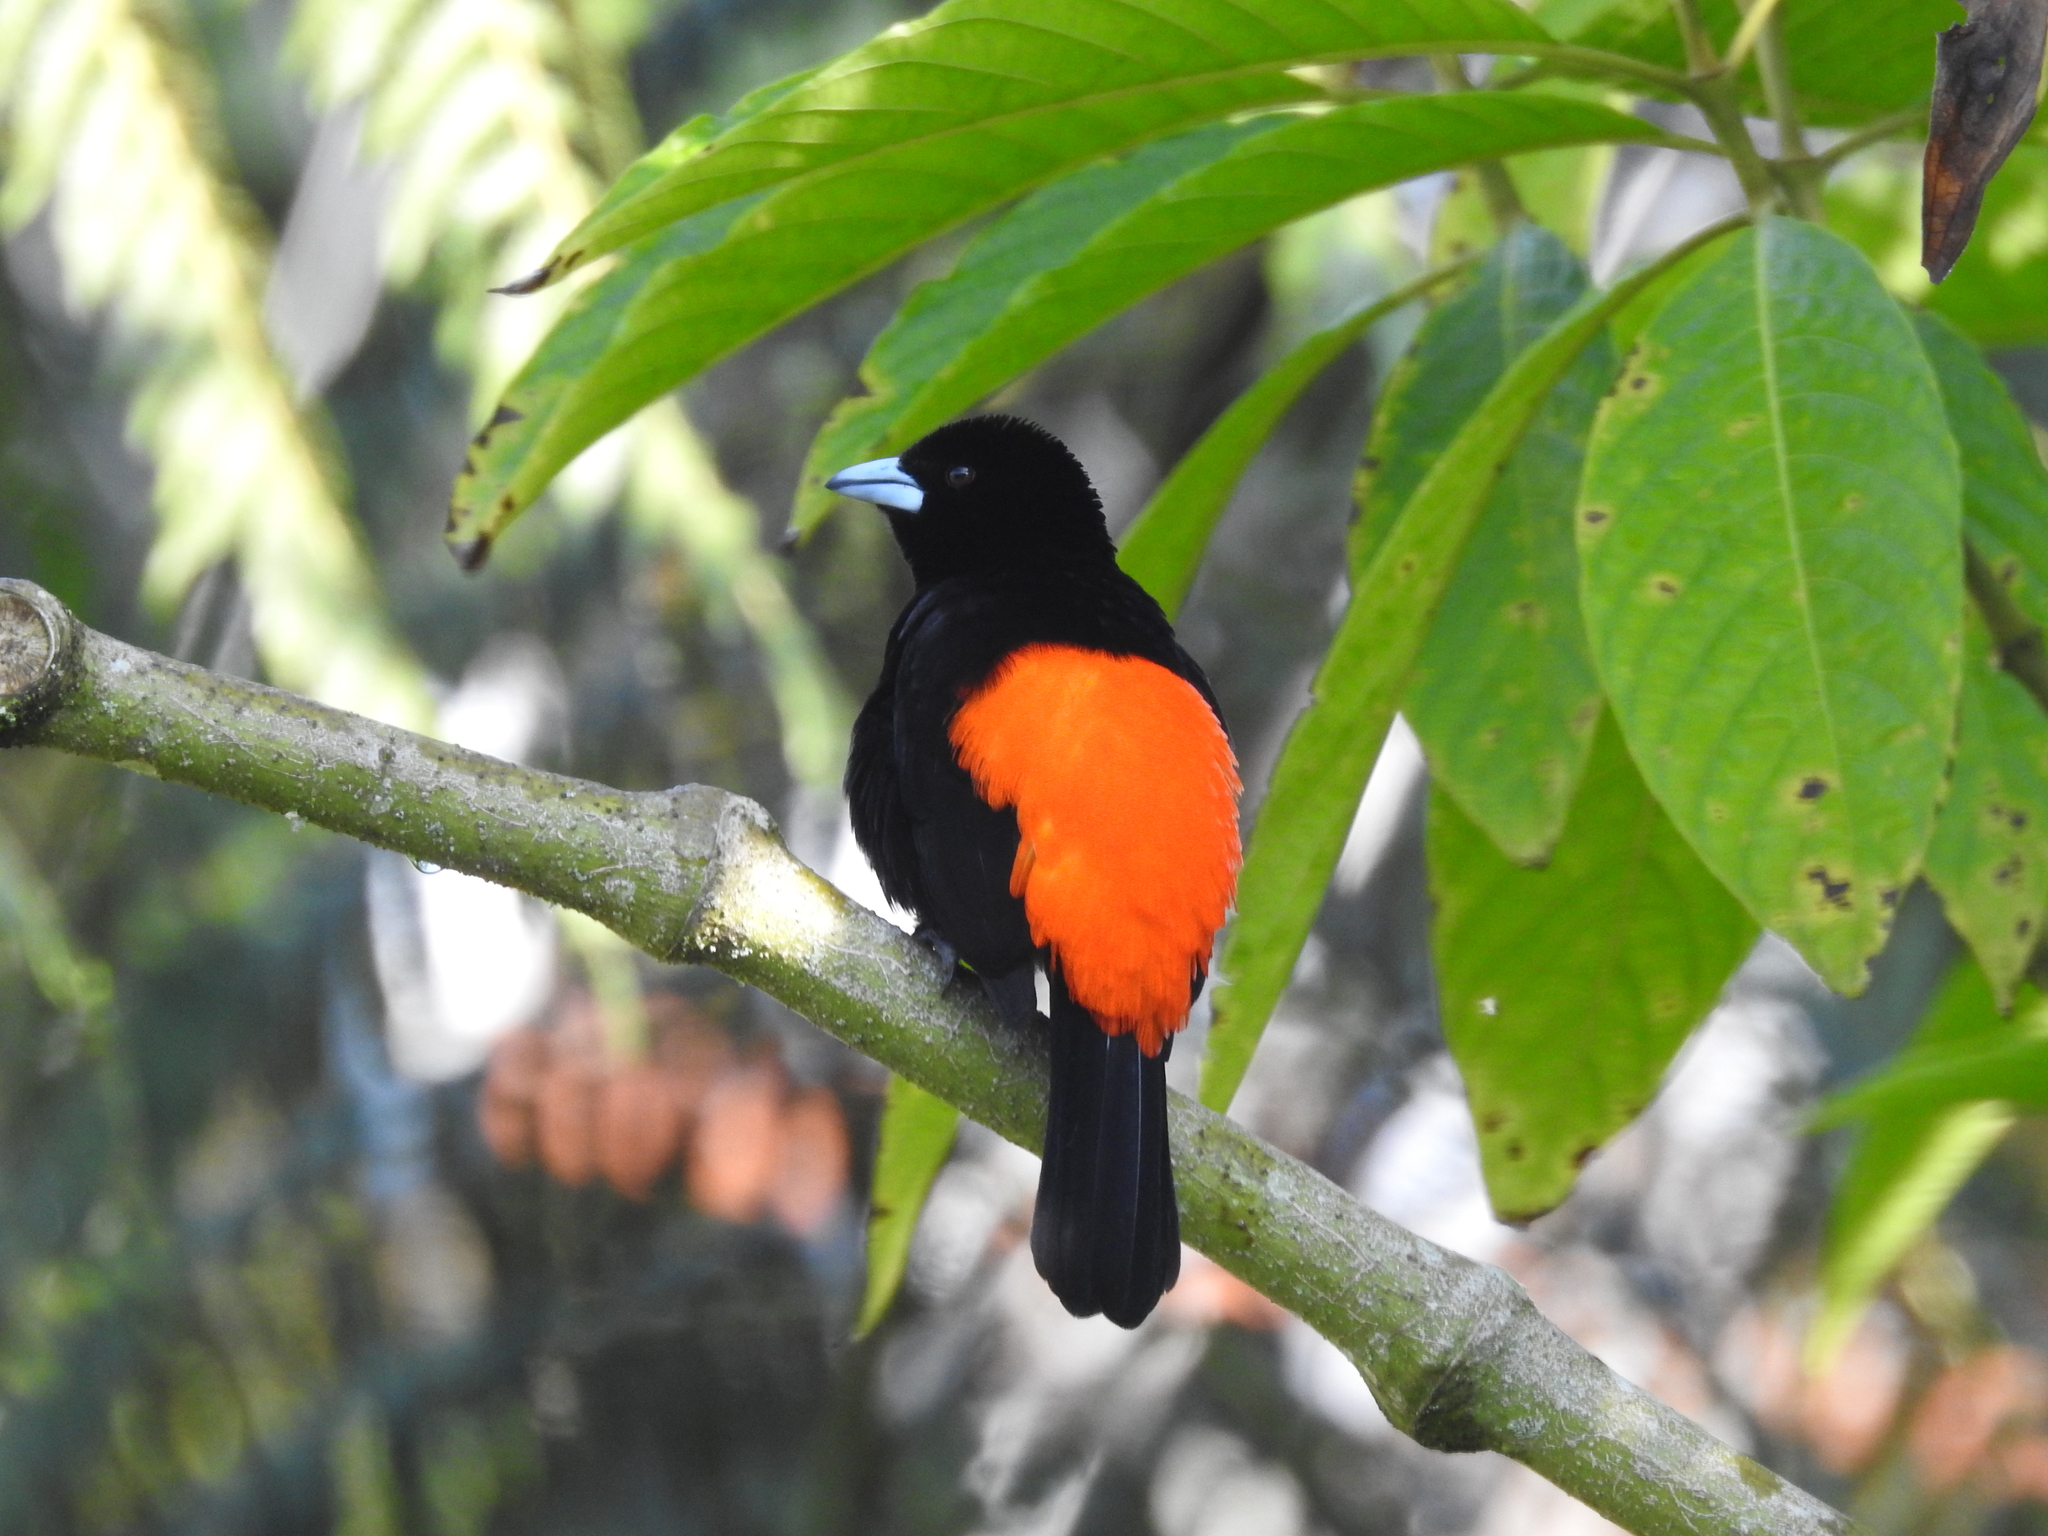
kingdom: Animalia
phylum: Chordata
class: Aves
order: Passeriformes
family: Thraupidae
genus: Ramphocelus
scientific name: Ramphocelus flammigerus
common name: Flame-rumped tanager
